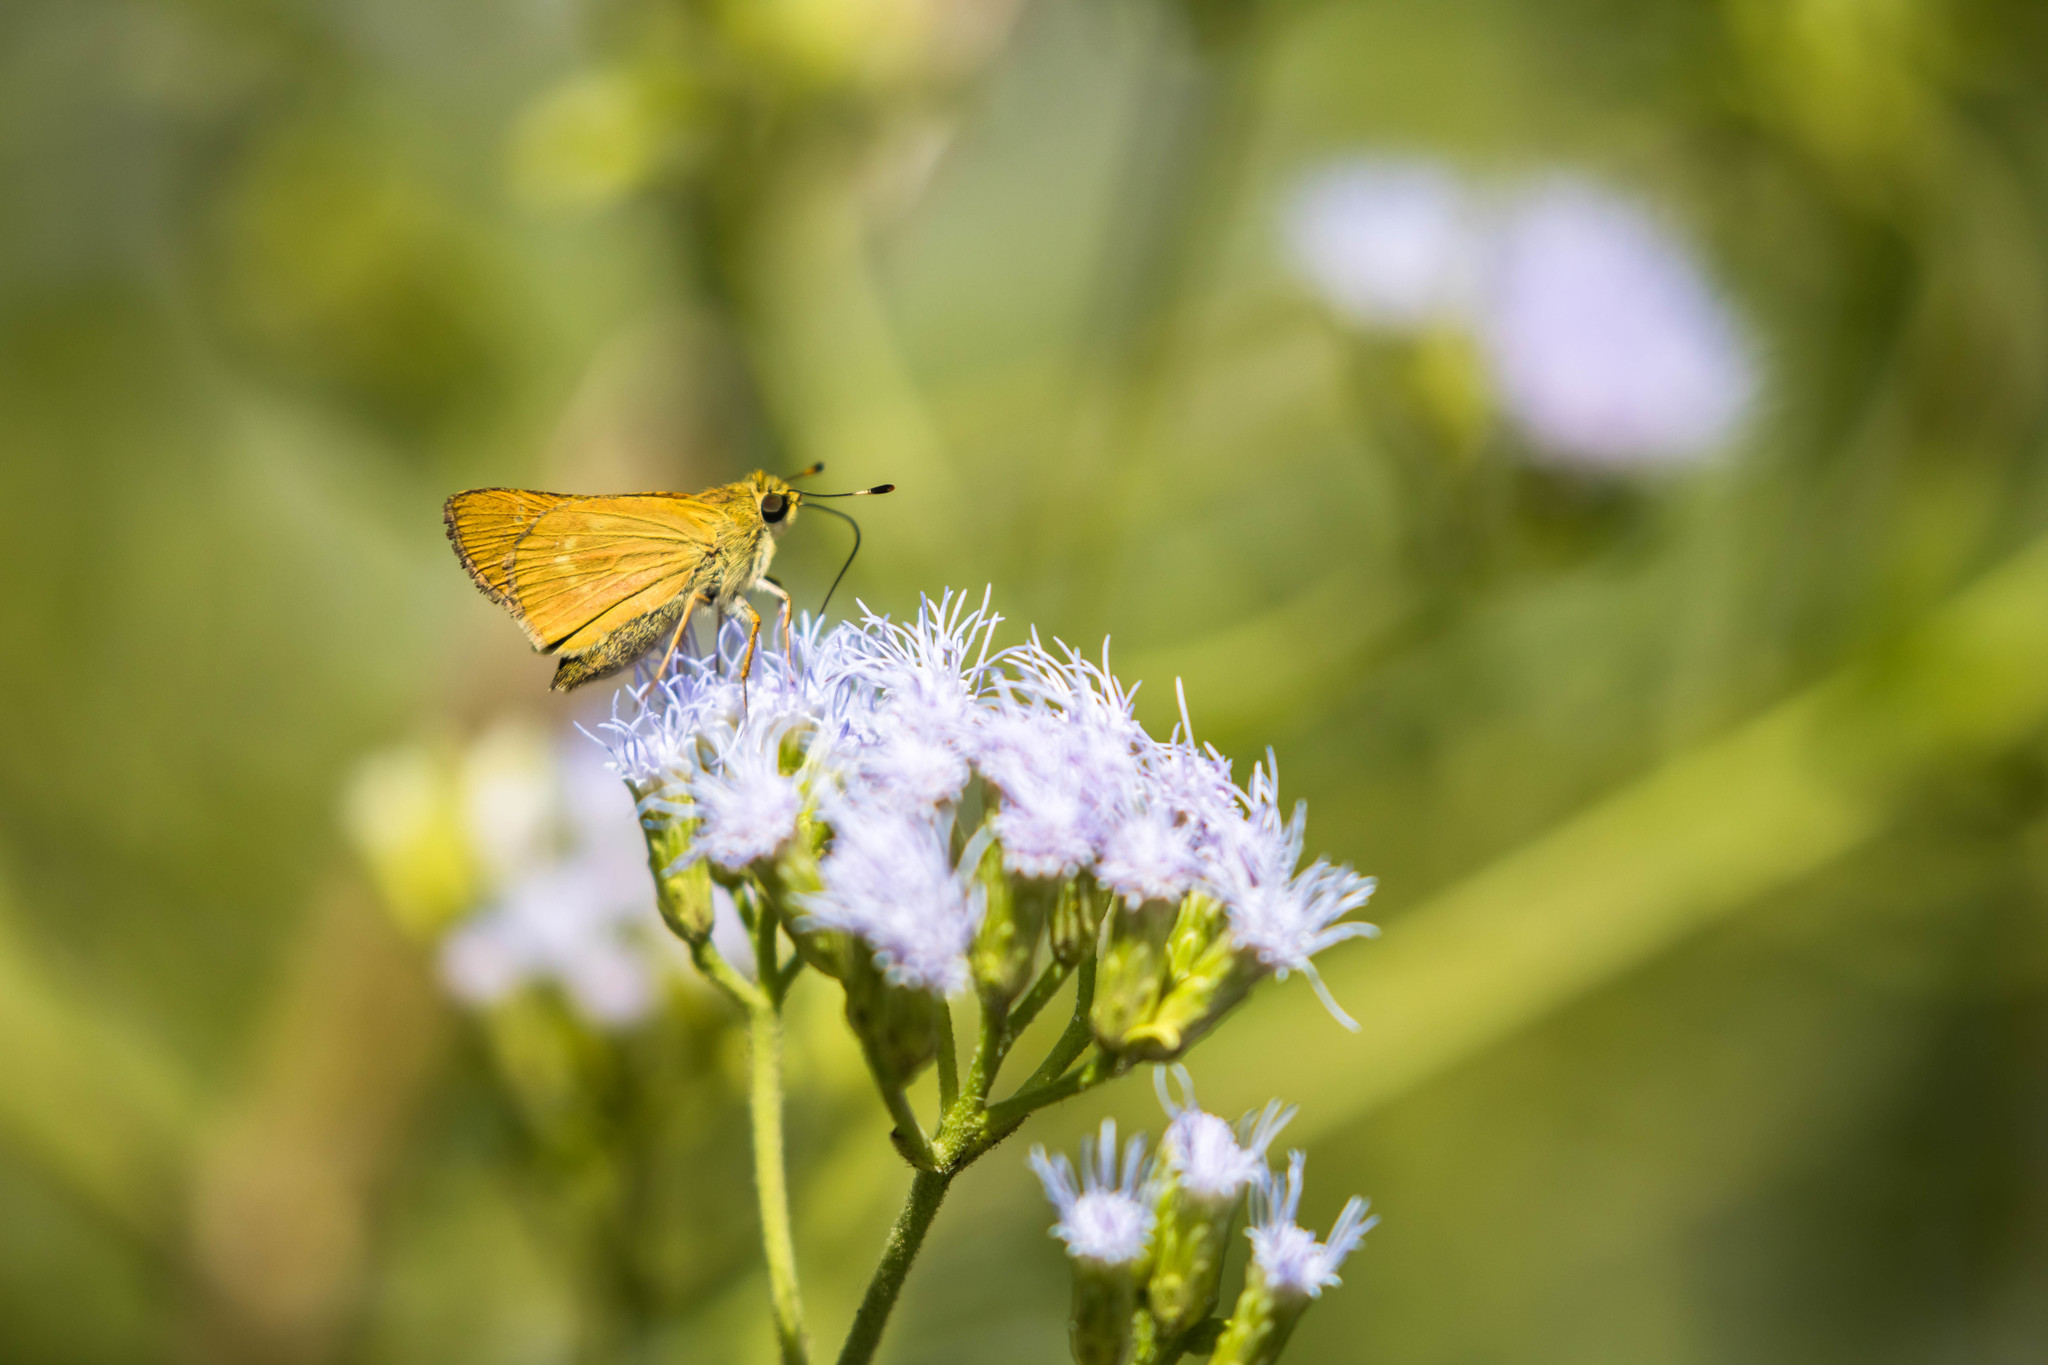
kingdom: Animalia
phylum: Arthropoda
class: Insecta
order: Lepidoptera
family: Hesperiidae
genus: Mellana
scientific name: Mellana eulogius
